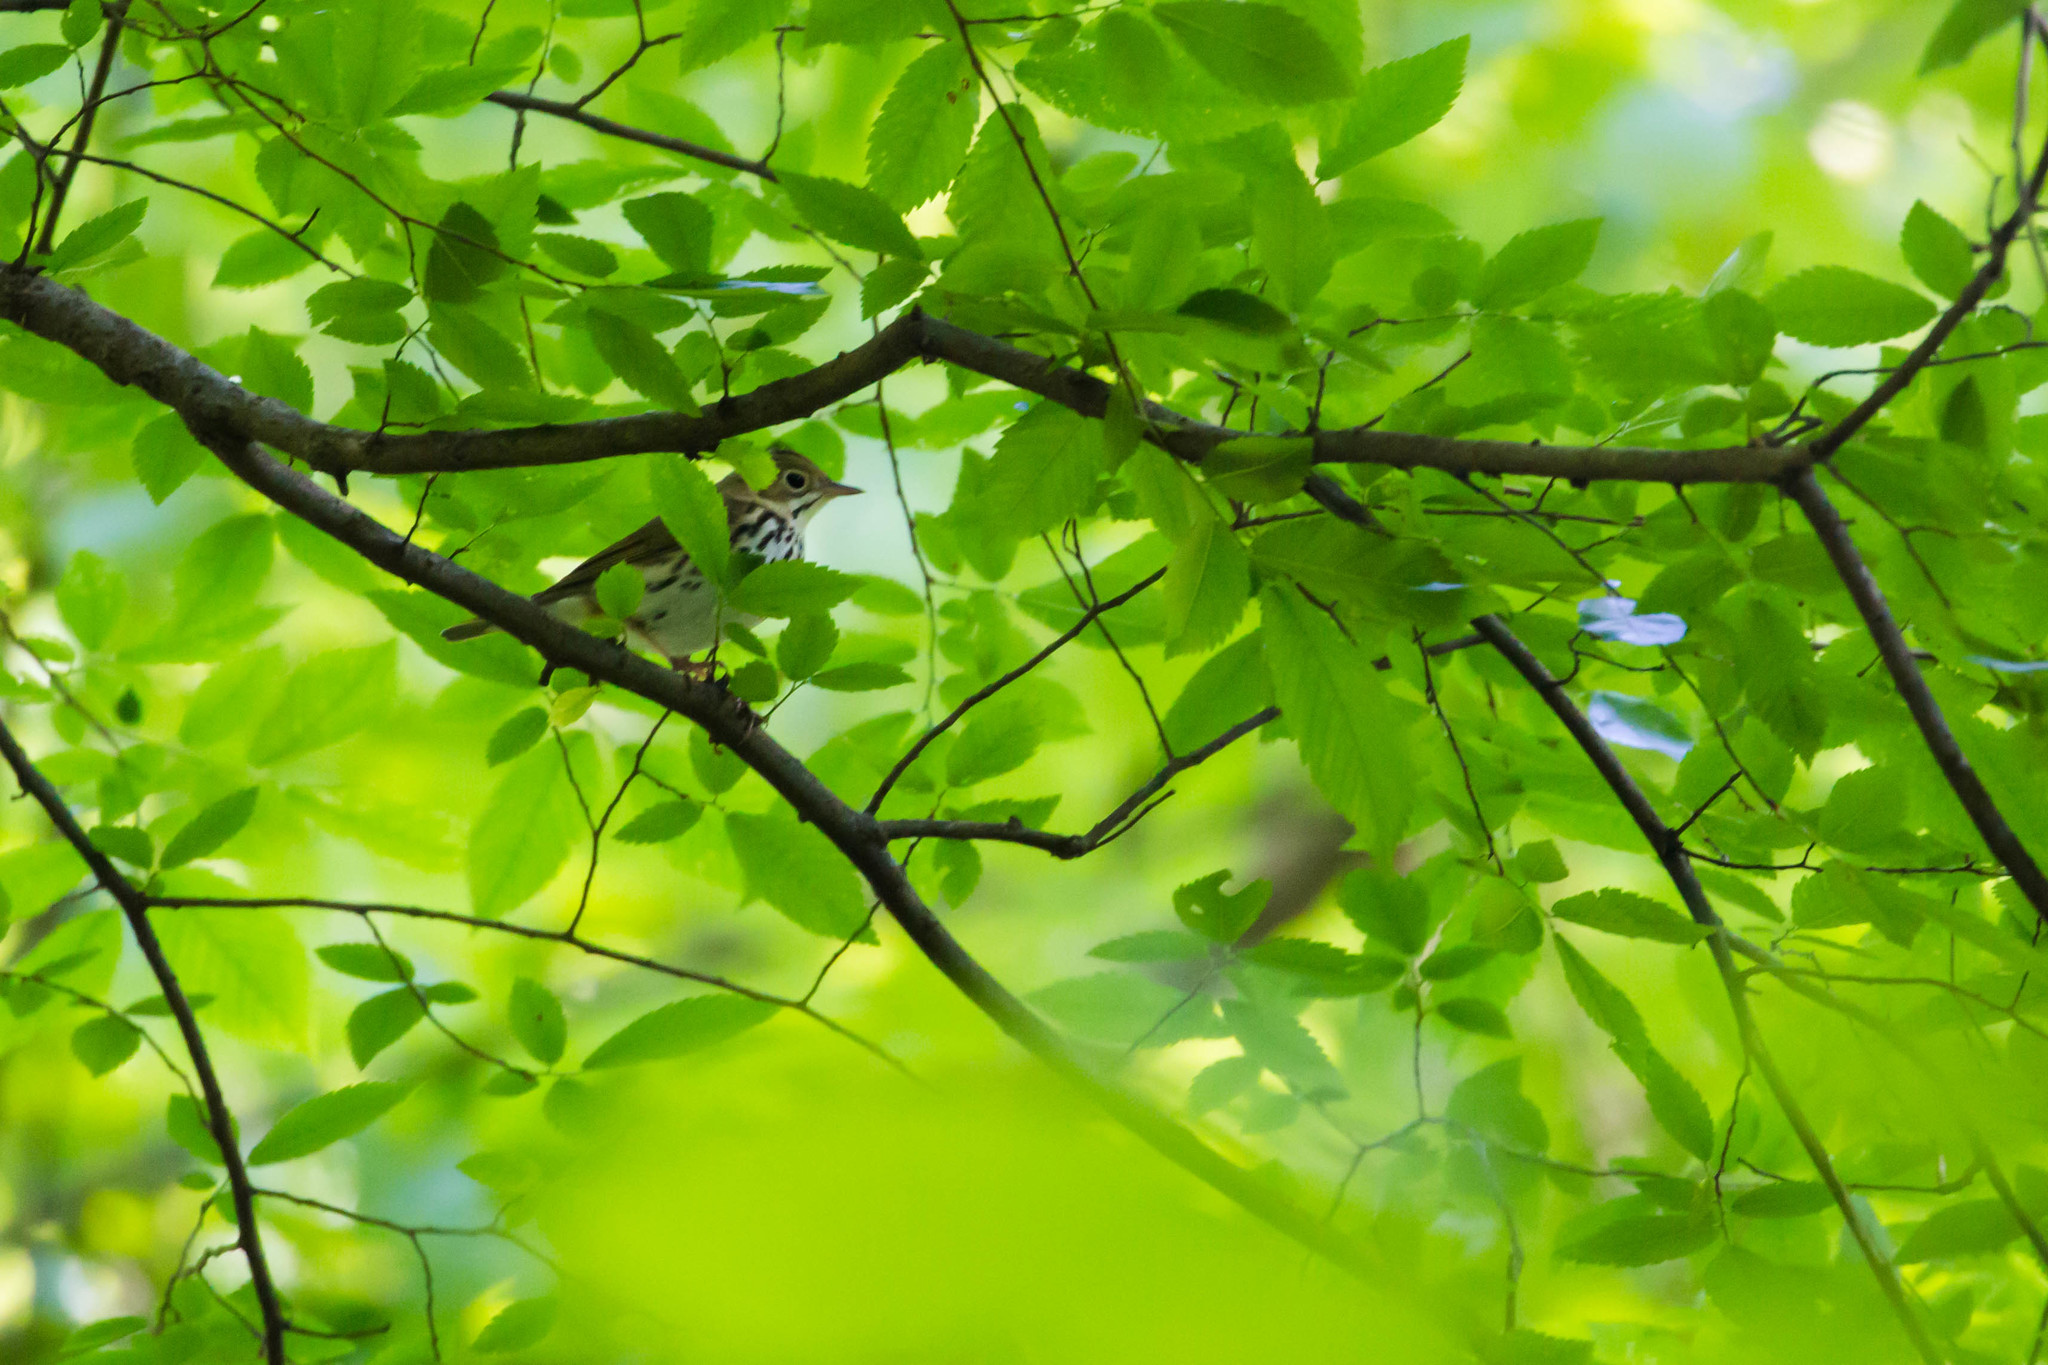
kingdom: Animalia
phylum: Chordata
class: Aves
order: Passeriformes
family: Parulidae
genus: Seiurus
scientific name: Seiurus aurocapilla
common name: Ovenbird
